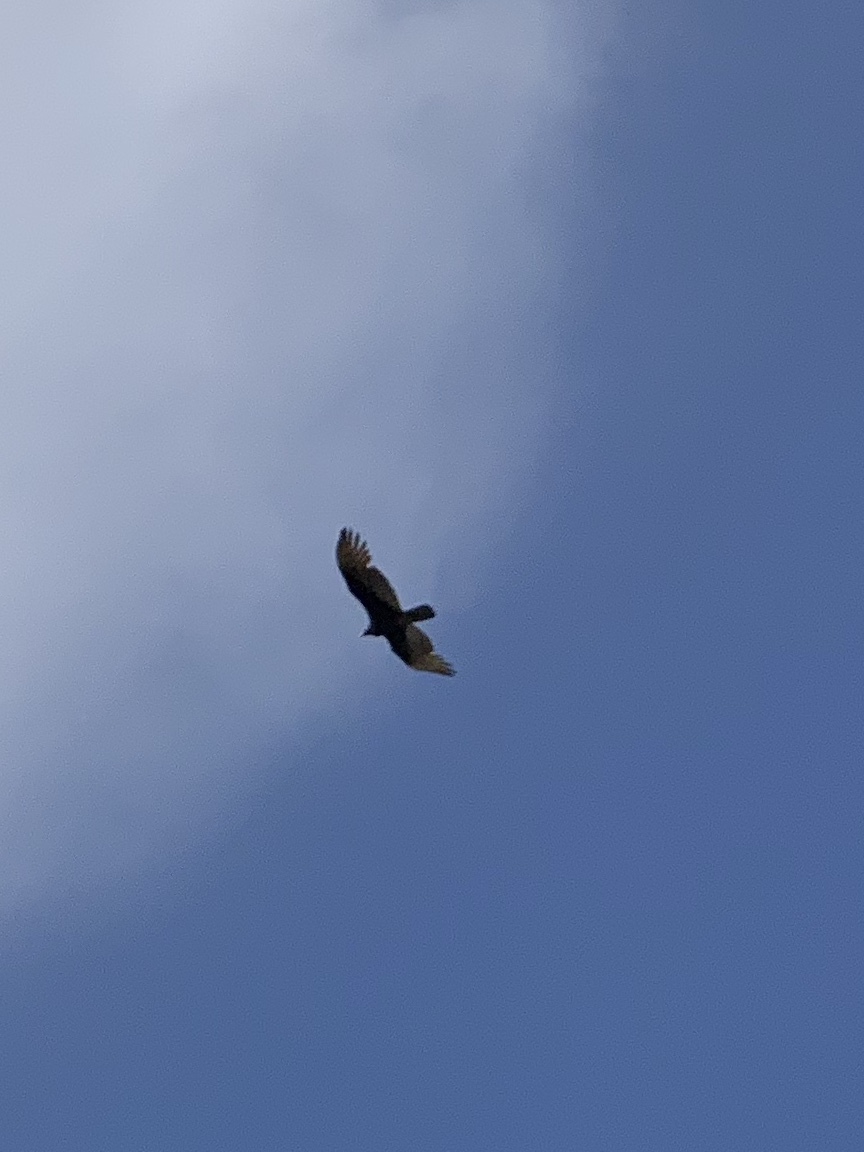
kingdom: Animalia
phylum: Chordata
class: Aves
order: Accipitriformes
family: Cathartidae
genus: Cathartes
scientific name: Cathartes aura
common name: Turkey vulture
